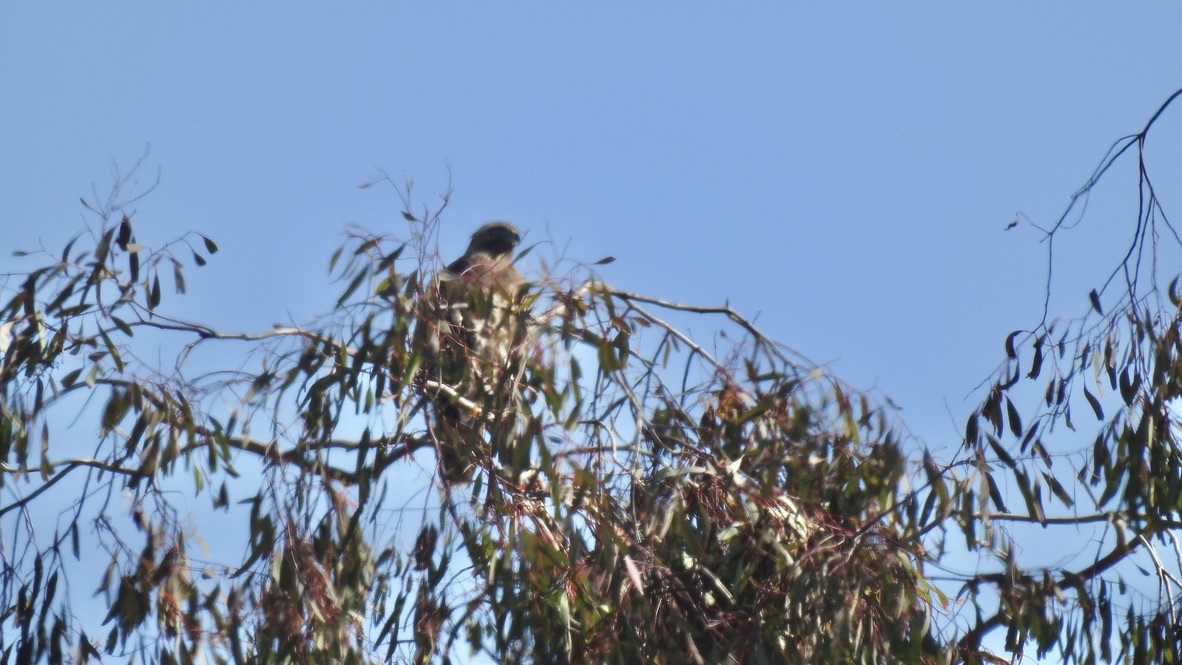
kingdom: Animalia
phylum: Chordata
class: Aves
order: Accipitriformes
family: Accipitridae
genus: Buteo
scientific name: Buteo jamaicensis
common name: Red-tailed hawk
